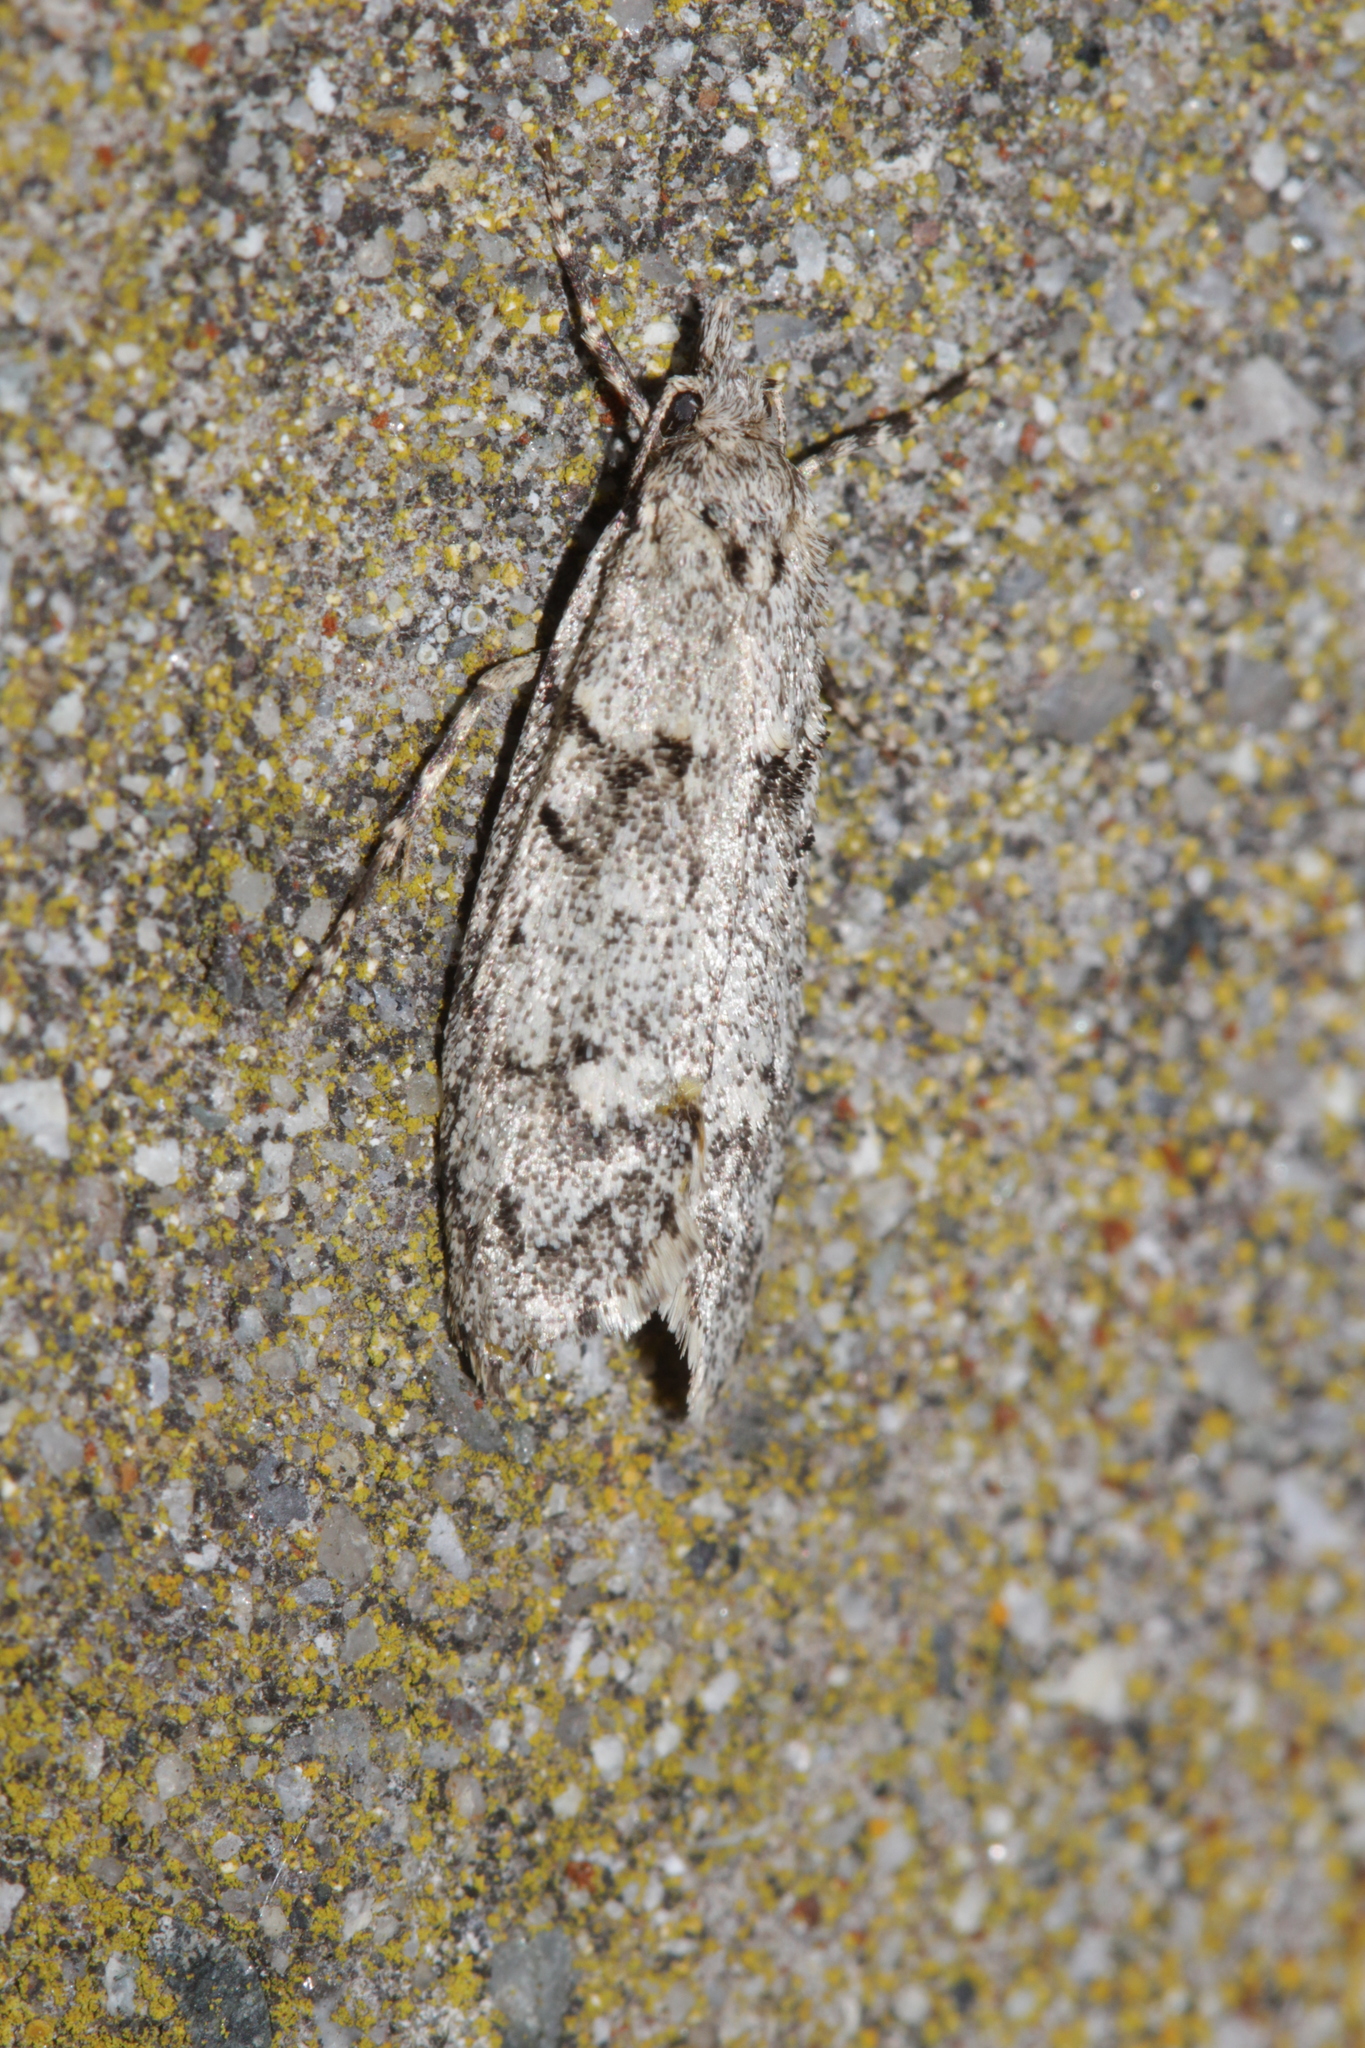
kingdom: Animalia
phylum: Arthropoda
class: Insecta
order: Lepidoptera
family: Lypusidae
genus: Diurnea
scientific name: Diurnea fagella
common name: March tubic
